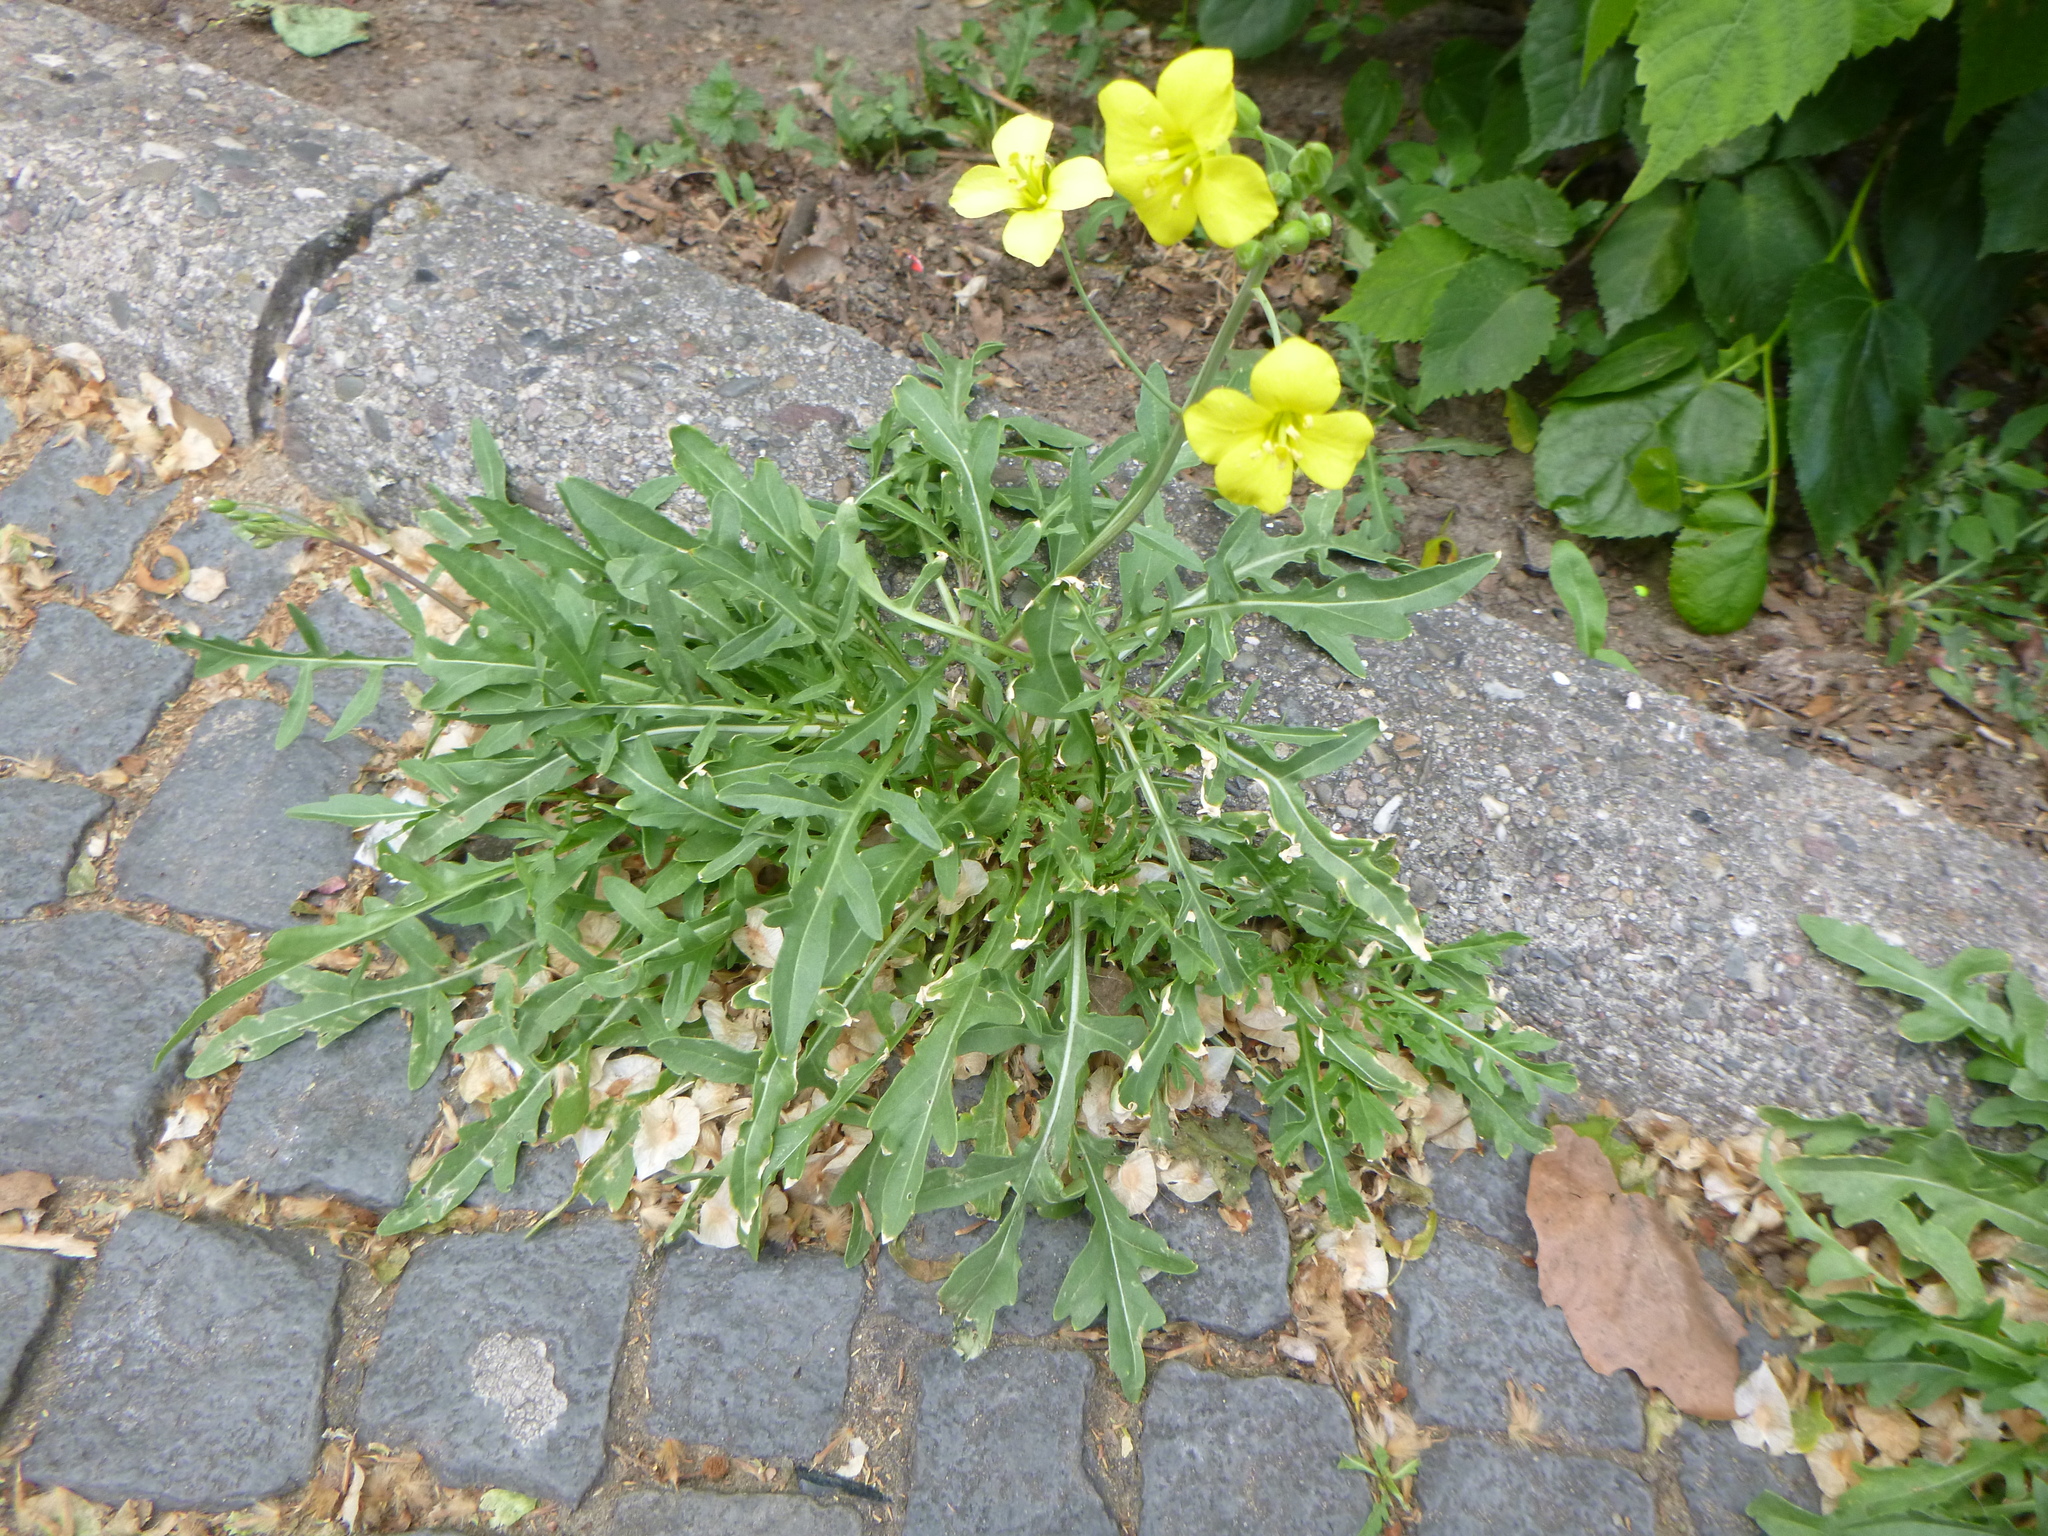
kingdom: Plantae
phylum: Tracheophyta
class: Magnoliopsida
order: Brassicales
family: Brassicaceae
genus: Diplotaxis
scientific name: Diplotaxis tenuifolia
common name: Perennial wall-rocket
